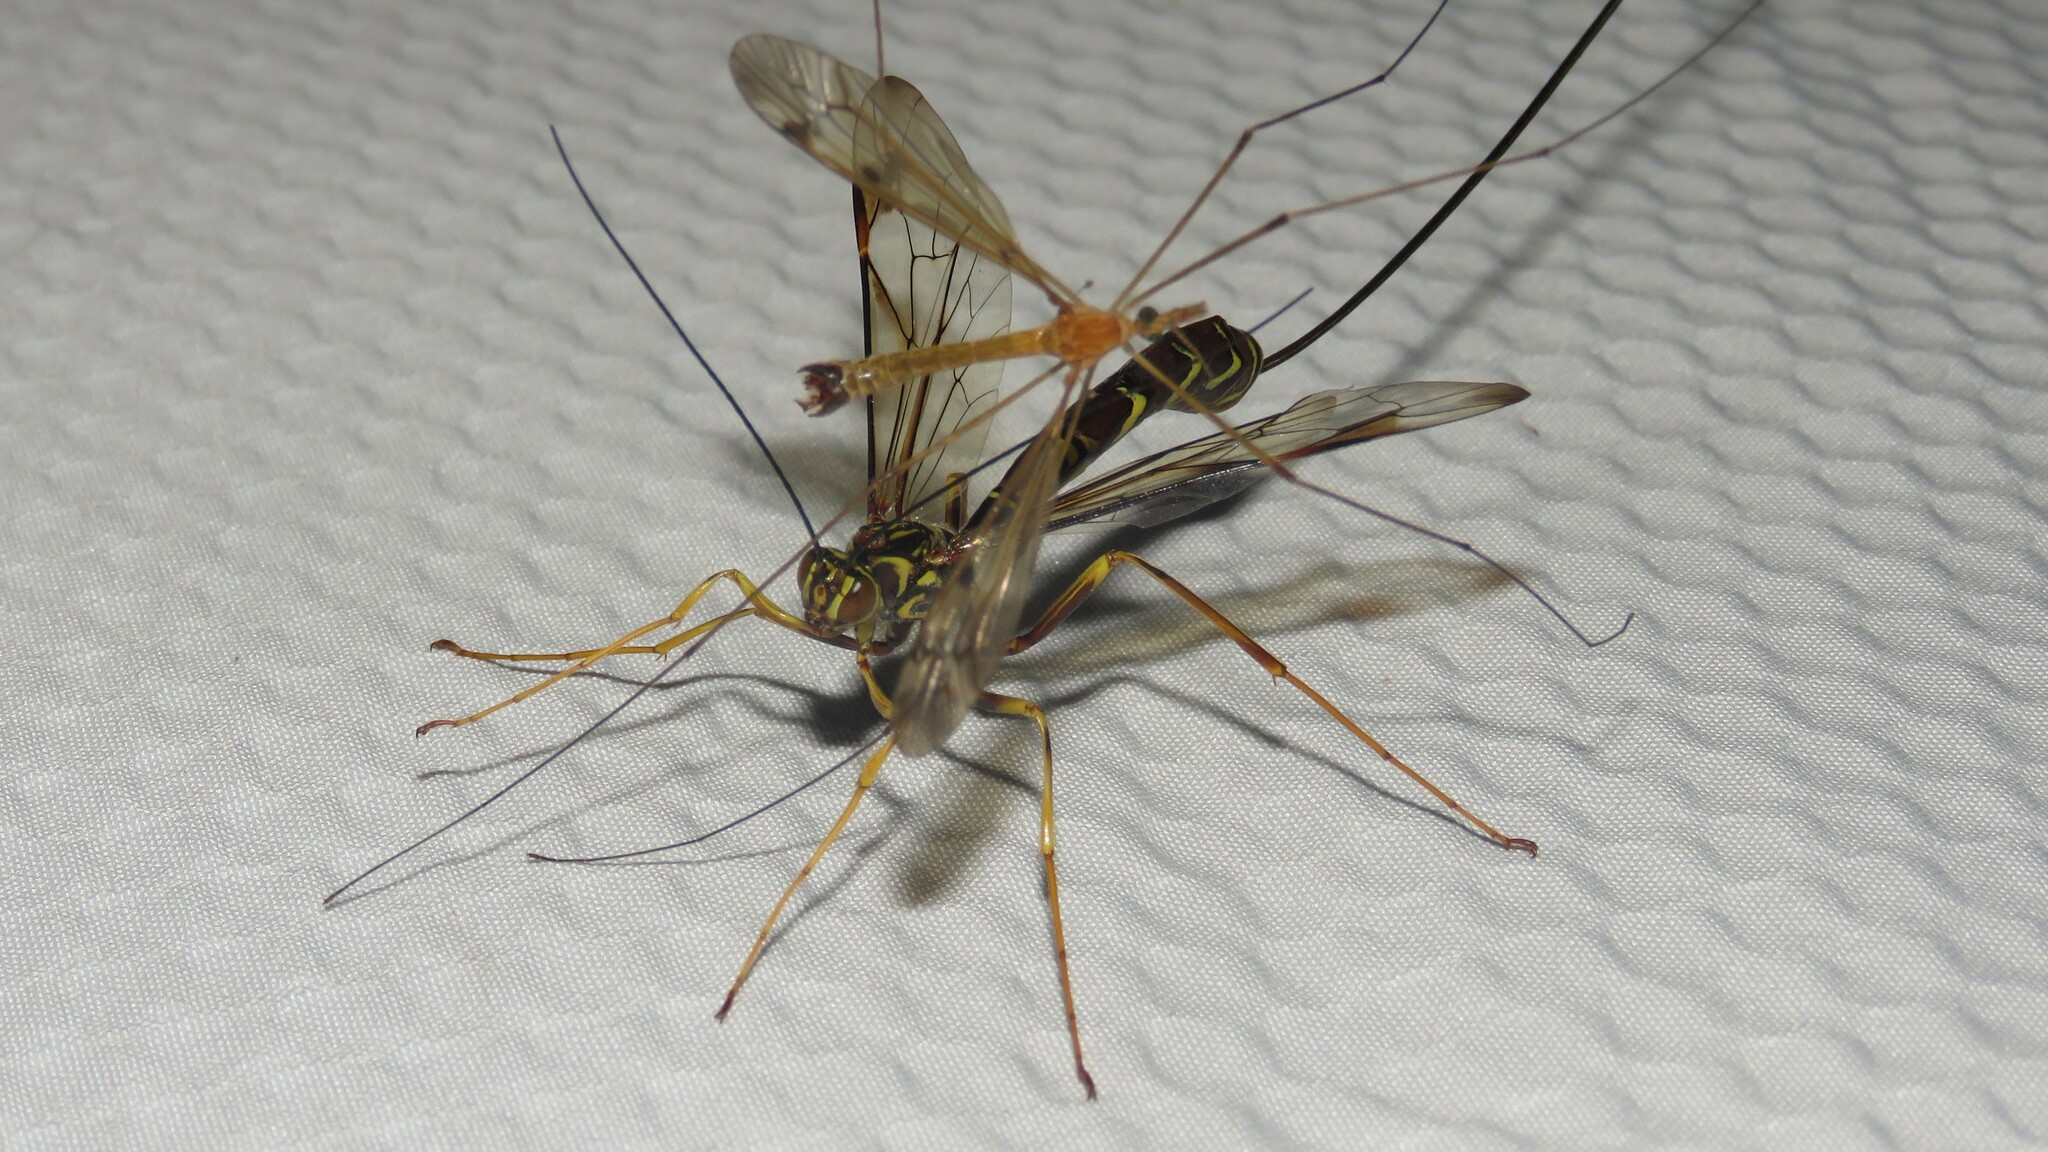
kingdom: Animalia
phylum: Arthropoda
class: Insecta
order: Hymenoptera
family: Ichneumonidae
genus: Megarhyssa
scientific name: Megarhyssa macrura
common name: Long-tailed giant ichneumonid wasp
